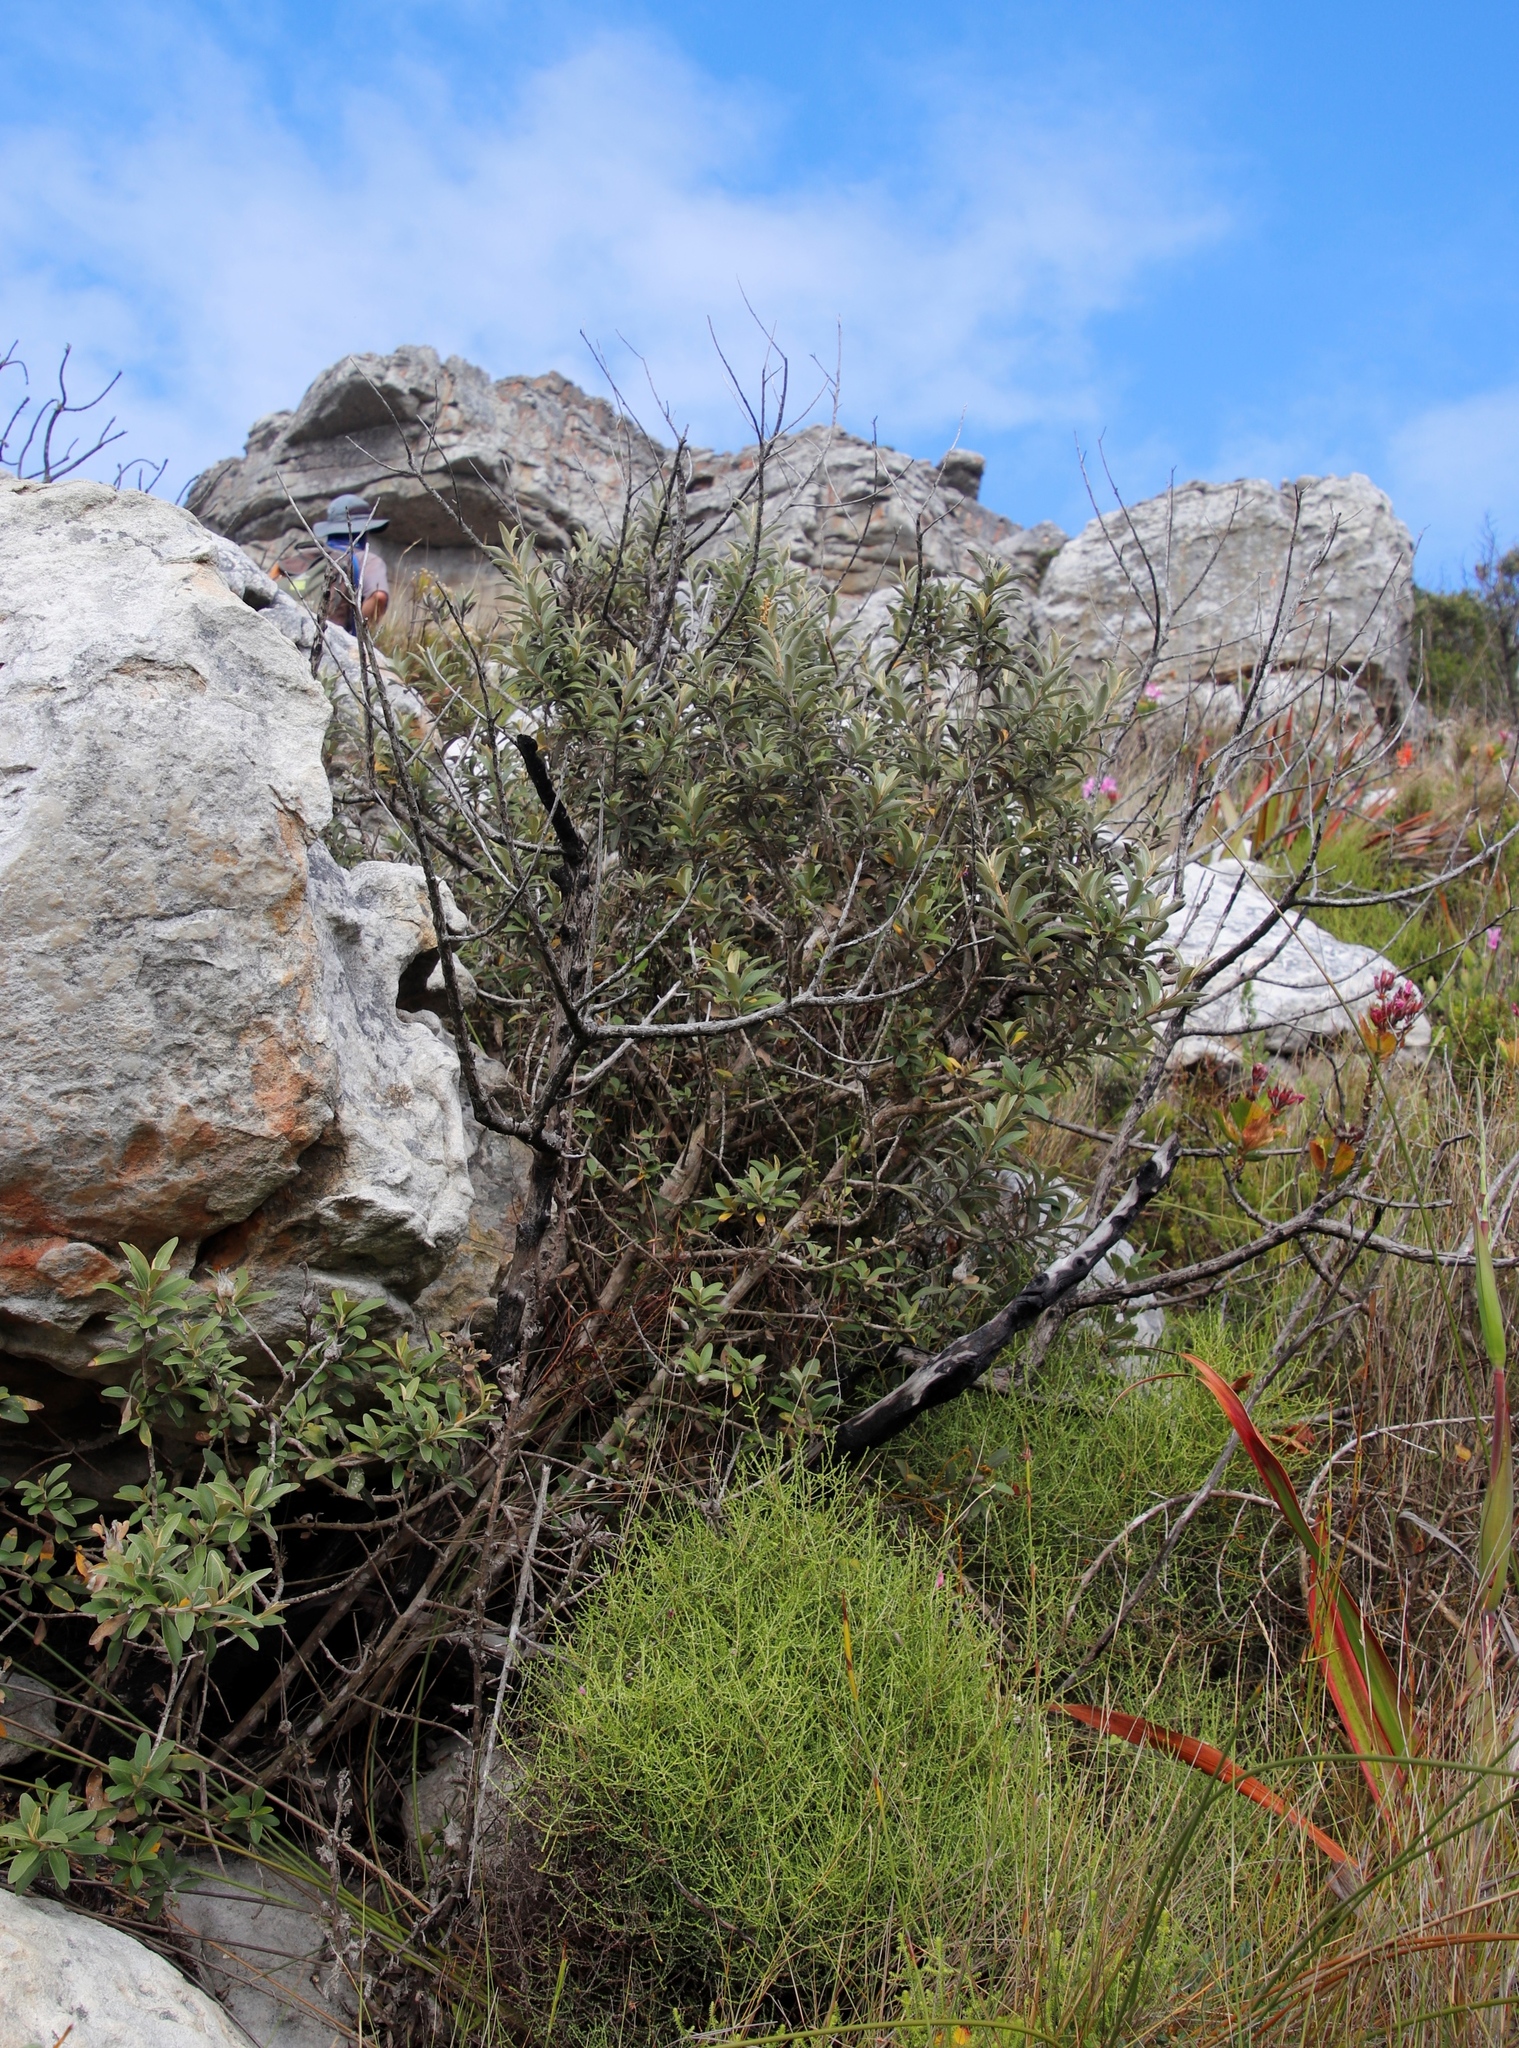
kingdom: Plantae
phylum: Tracheophyta
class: Magnoliopsida
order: Asterales
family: Asteraceae
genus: Tarchonanthus
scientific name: Tarchonanthus littoralis
